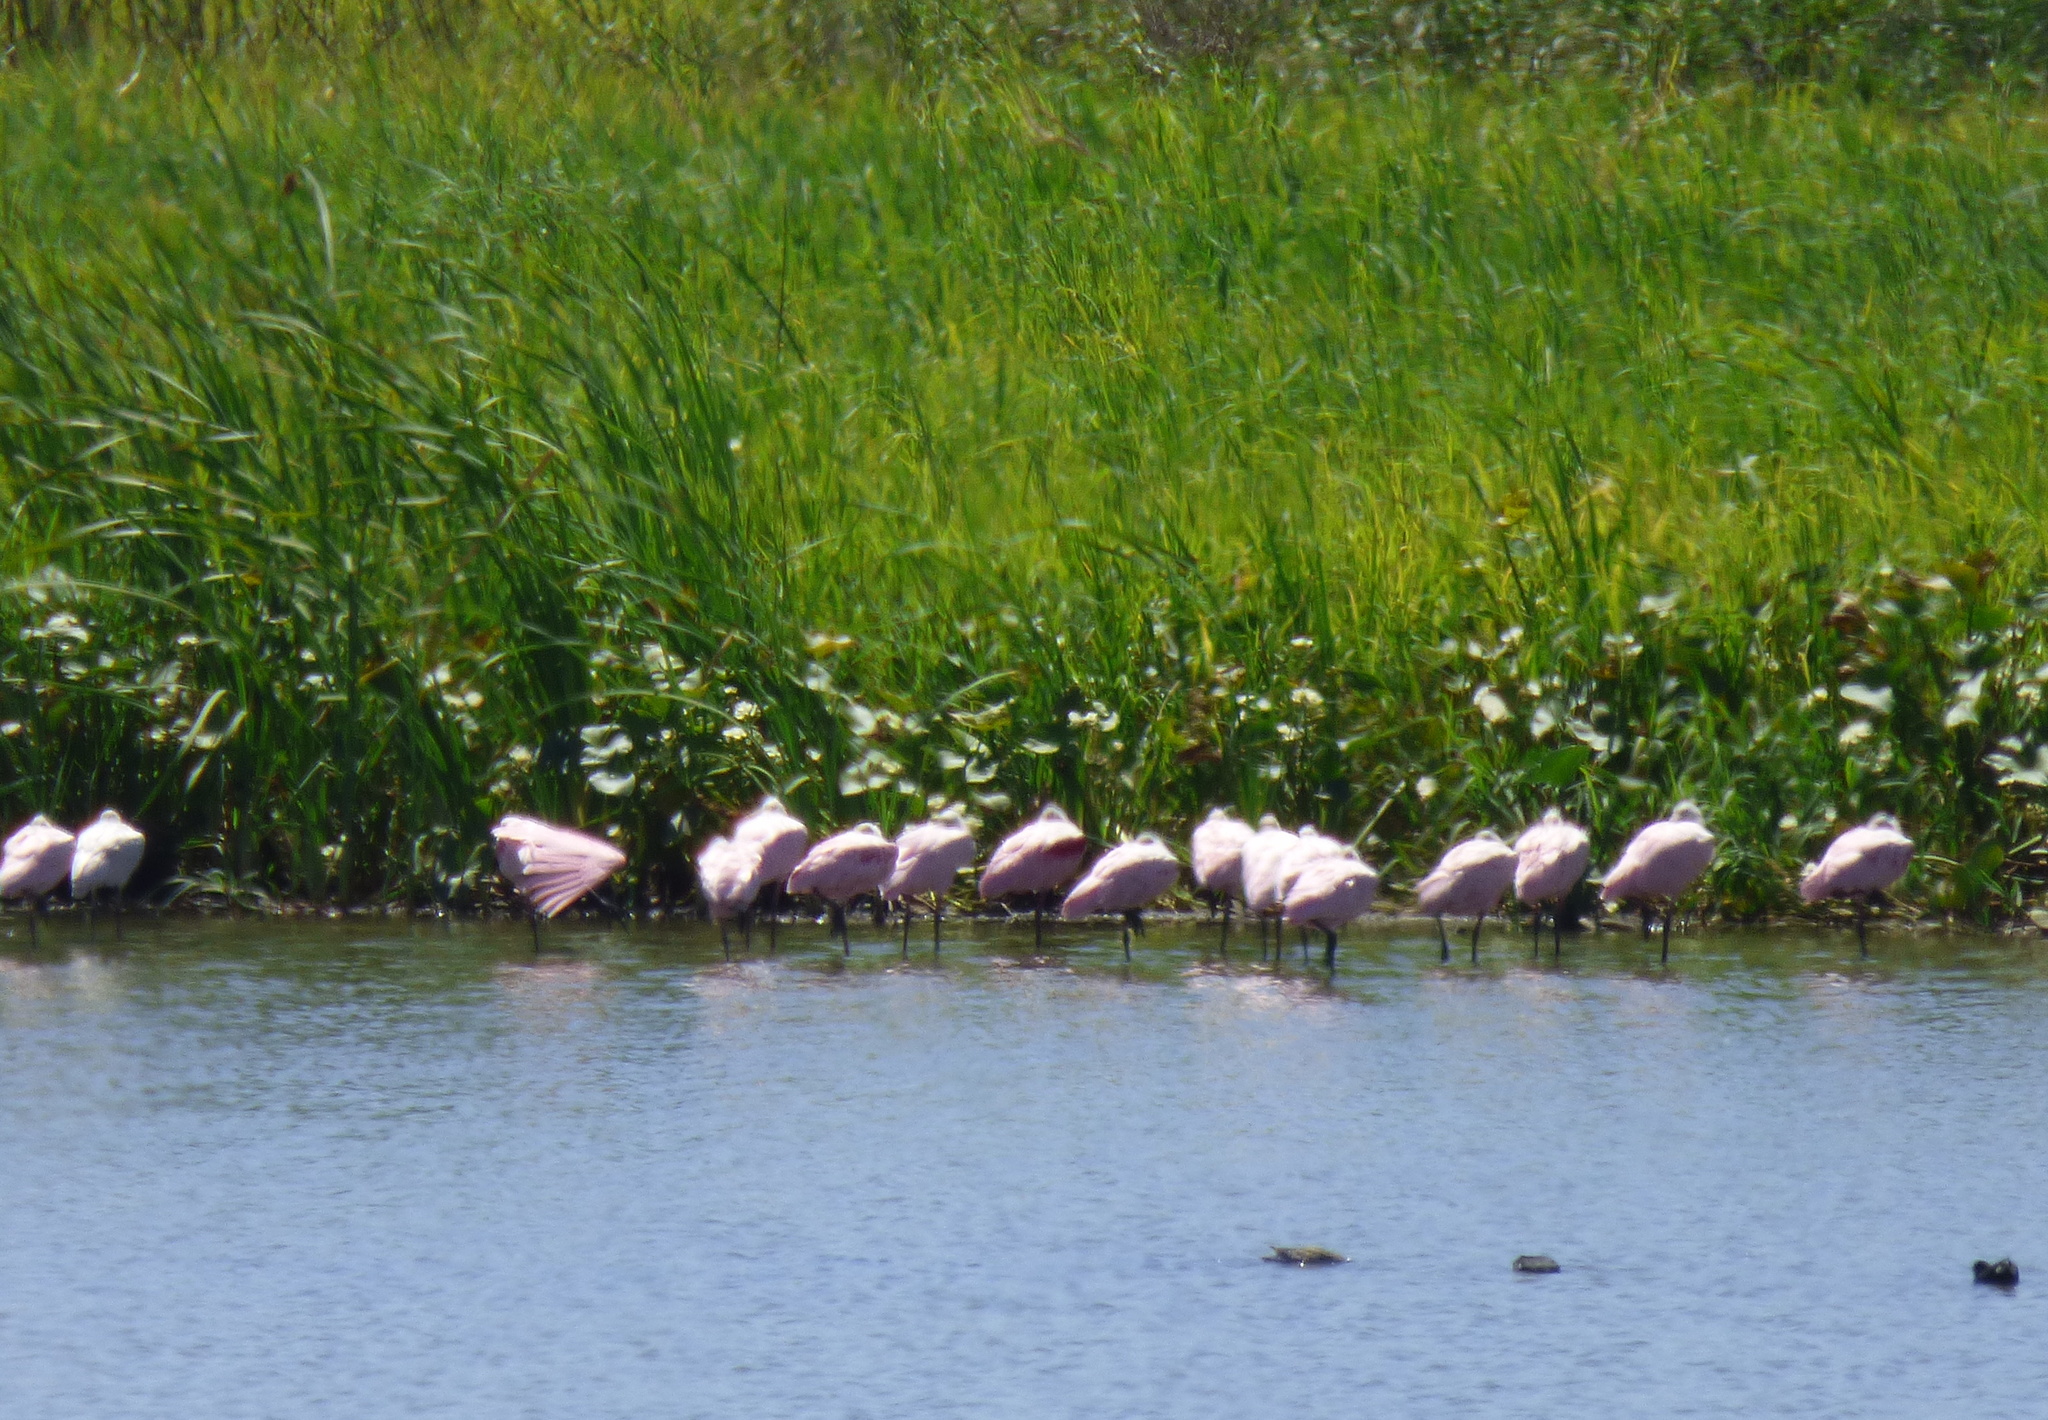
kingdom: Animalia
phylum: Chordata
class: Aves
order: Pelecaniformes
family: Threskiornithidae
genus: Platalea
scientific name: Platalea ajaja
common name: Roseate spoonbill
